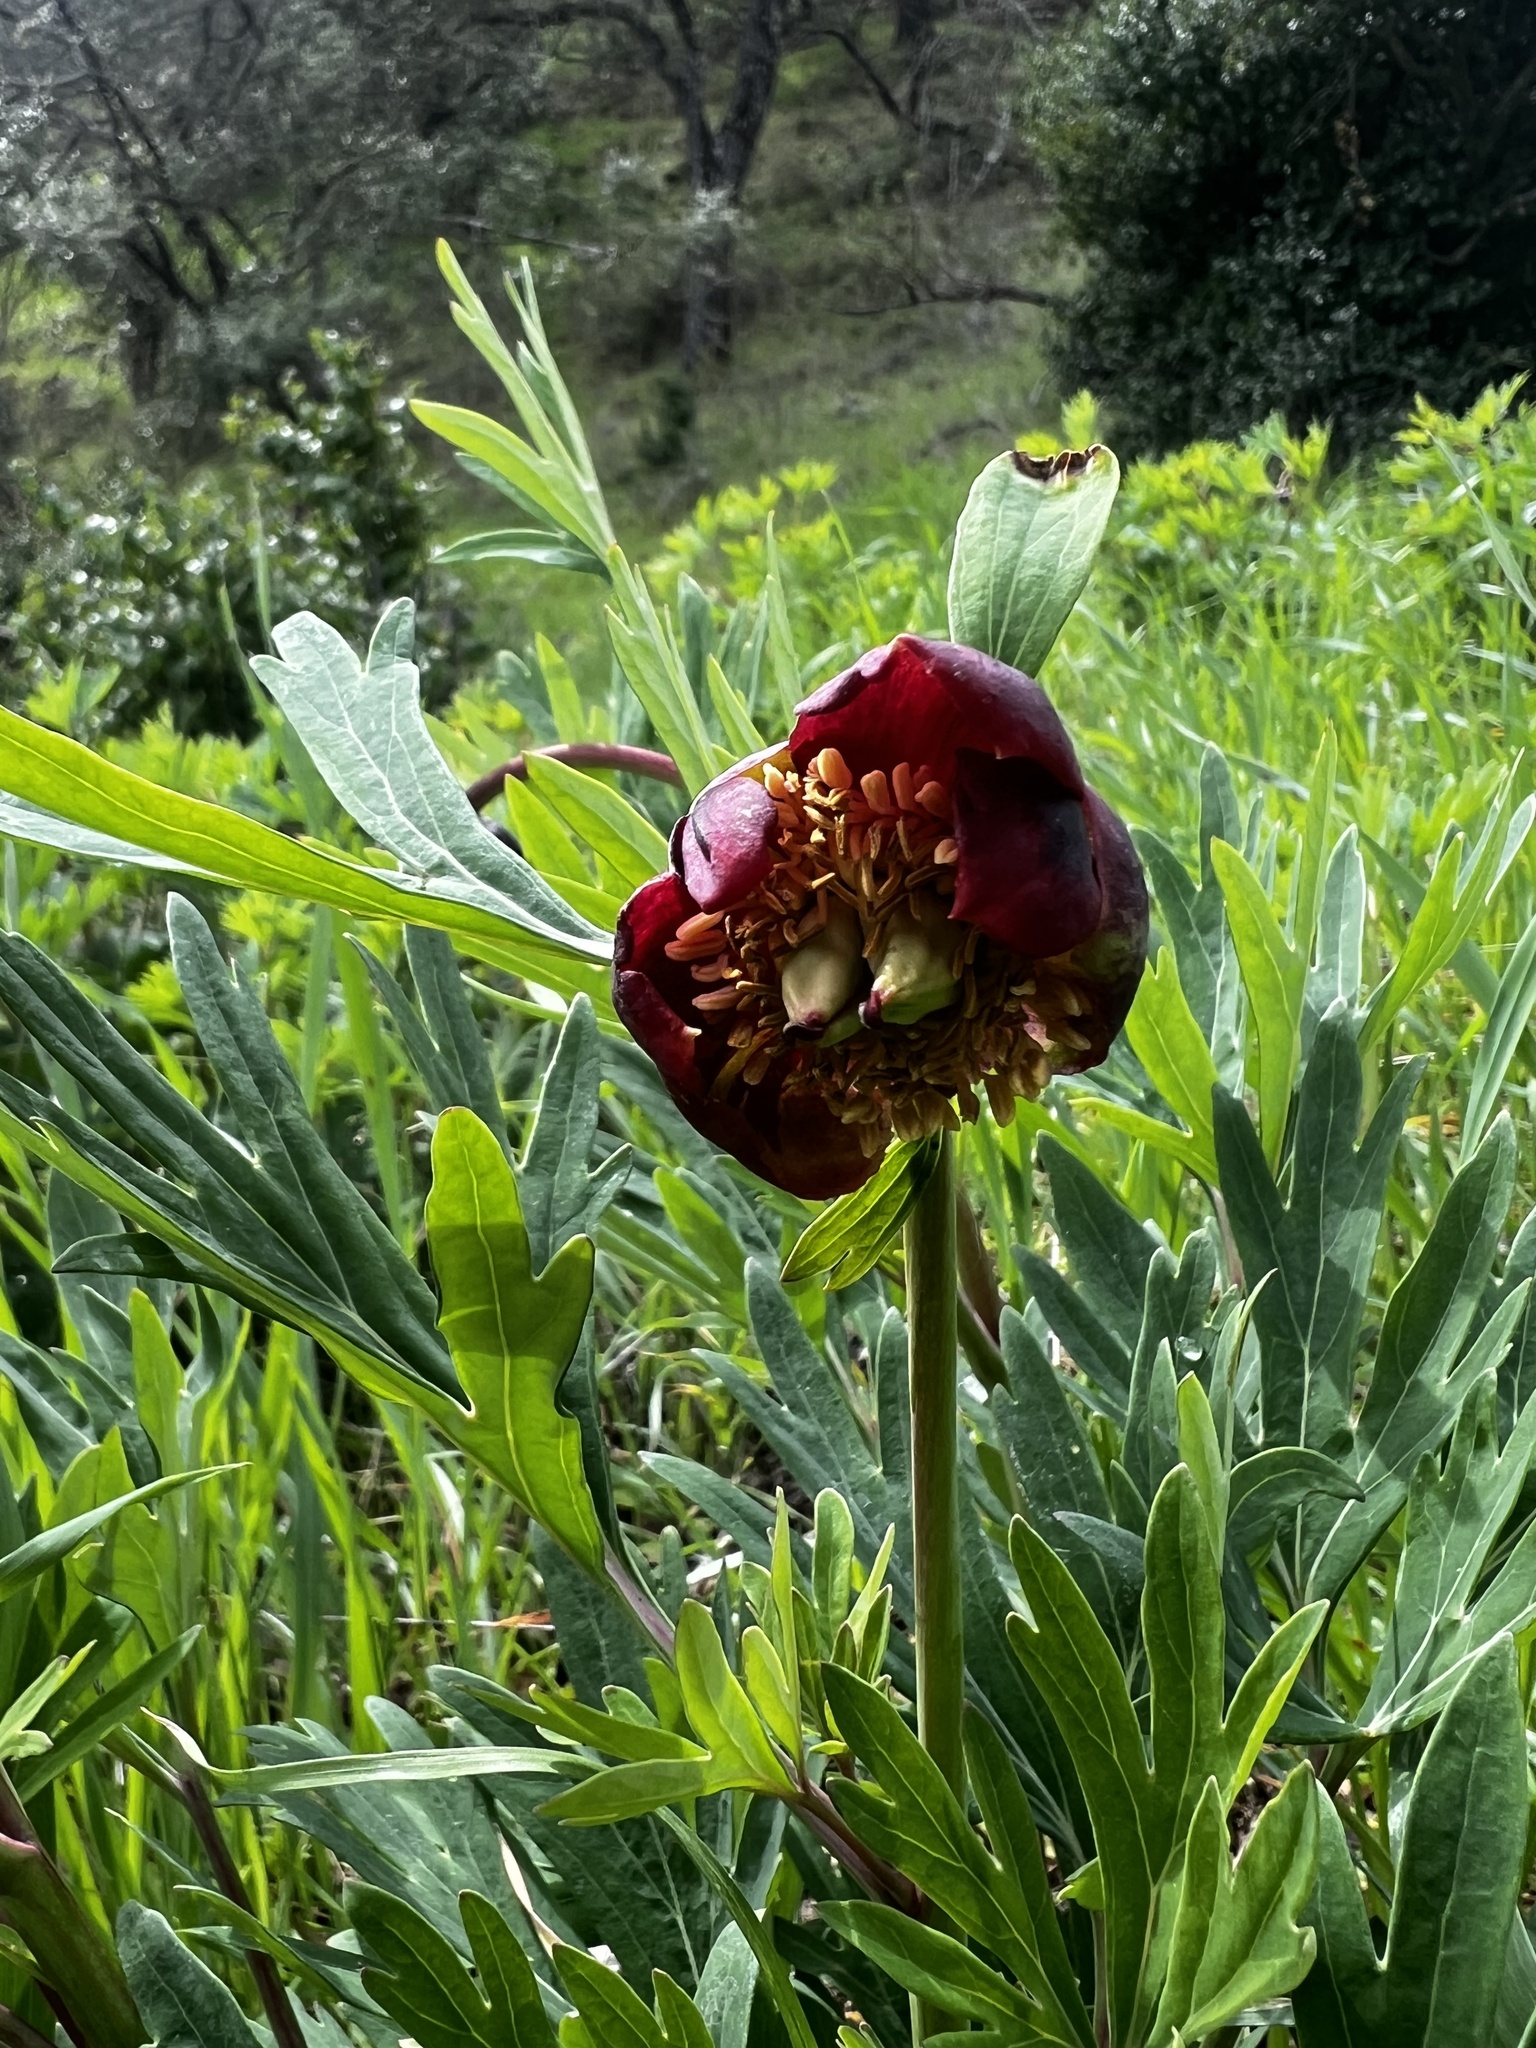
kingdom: Plantae
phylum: Tracheophyta
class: Magnoliopsida
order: Saxifragales
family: Paeoniaceae
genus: Paeonia
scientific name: Paeonia californica
